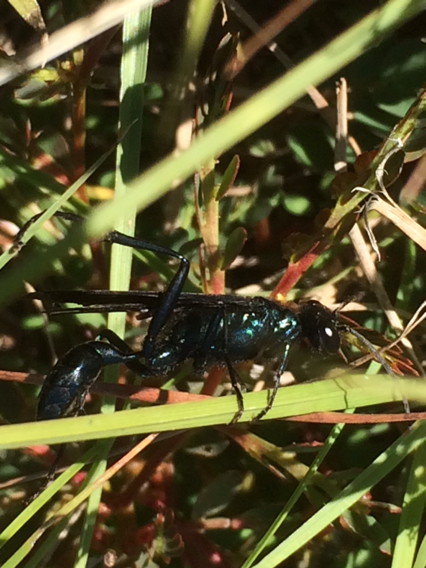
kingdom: Animalia
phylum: Arthropoda
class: Insecta
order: Hymenoptera
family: Sphecidae
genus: Chalybion
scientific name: Chalybion californicum
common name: Mud dauber
